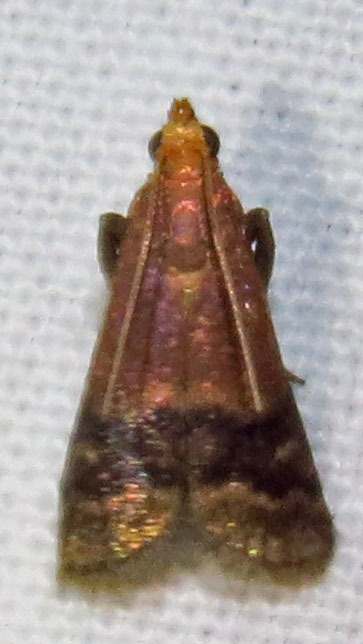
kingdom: Animalia
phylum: Arthropoda
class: Insecta
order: Lepidoptera
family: Pyralidae
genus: Eulogia
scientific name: Eulogia ochrifrontella
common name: Broad-banded eulogia moth
